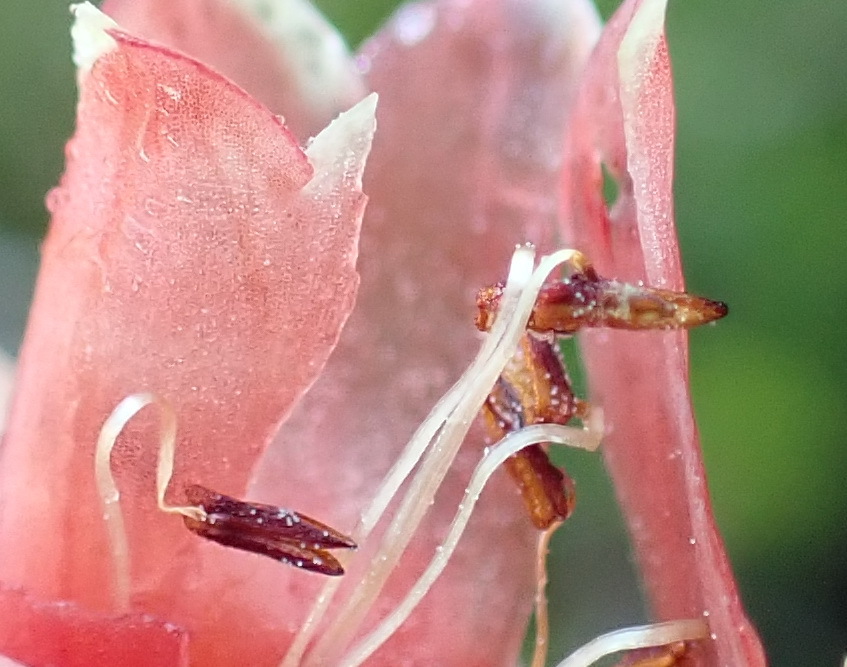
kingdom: Plantae
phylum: Tracheophyta
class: Magnoliopsida
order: Ericales
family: Ericaceae
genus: Erica
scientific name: Erica glandulosa
